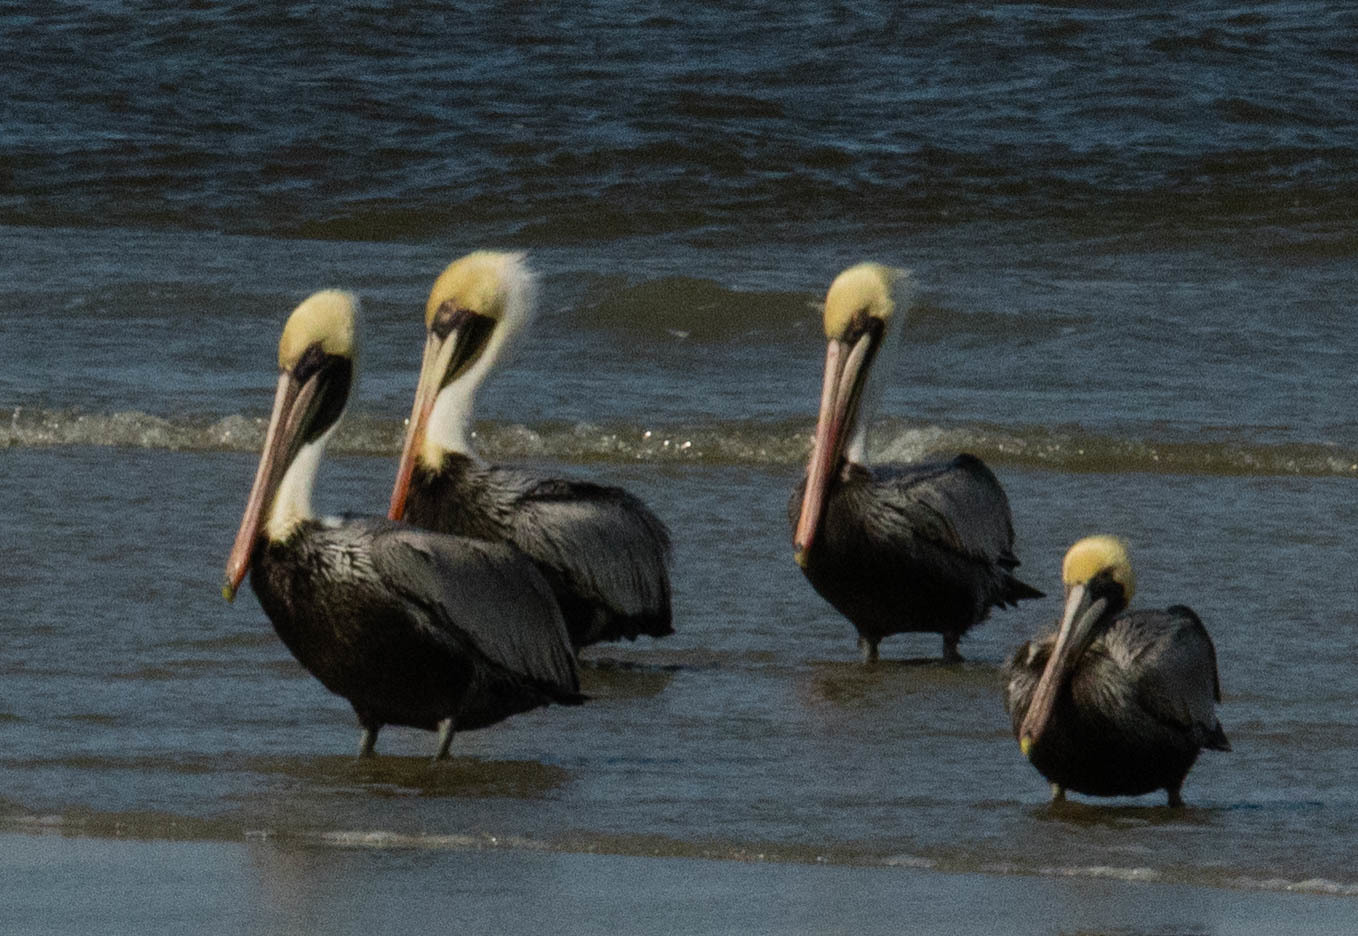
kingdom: Animalia
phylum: Chordata
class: Aves
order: Pelecaniformes
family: Pelecanidae
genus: Pelecanus
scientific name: Pelecanus occidentalis
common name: Brown pelican
